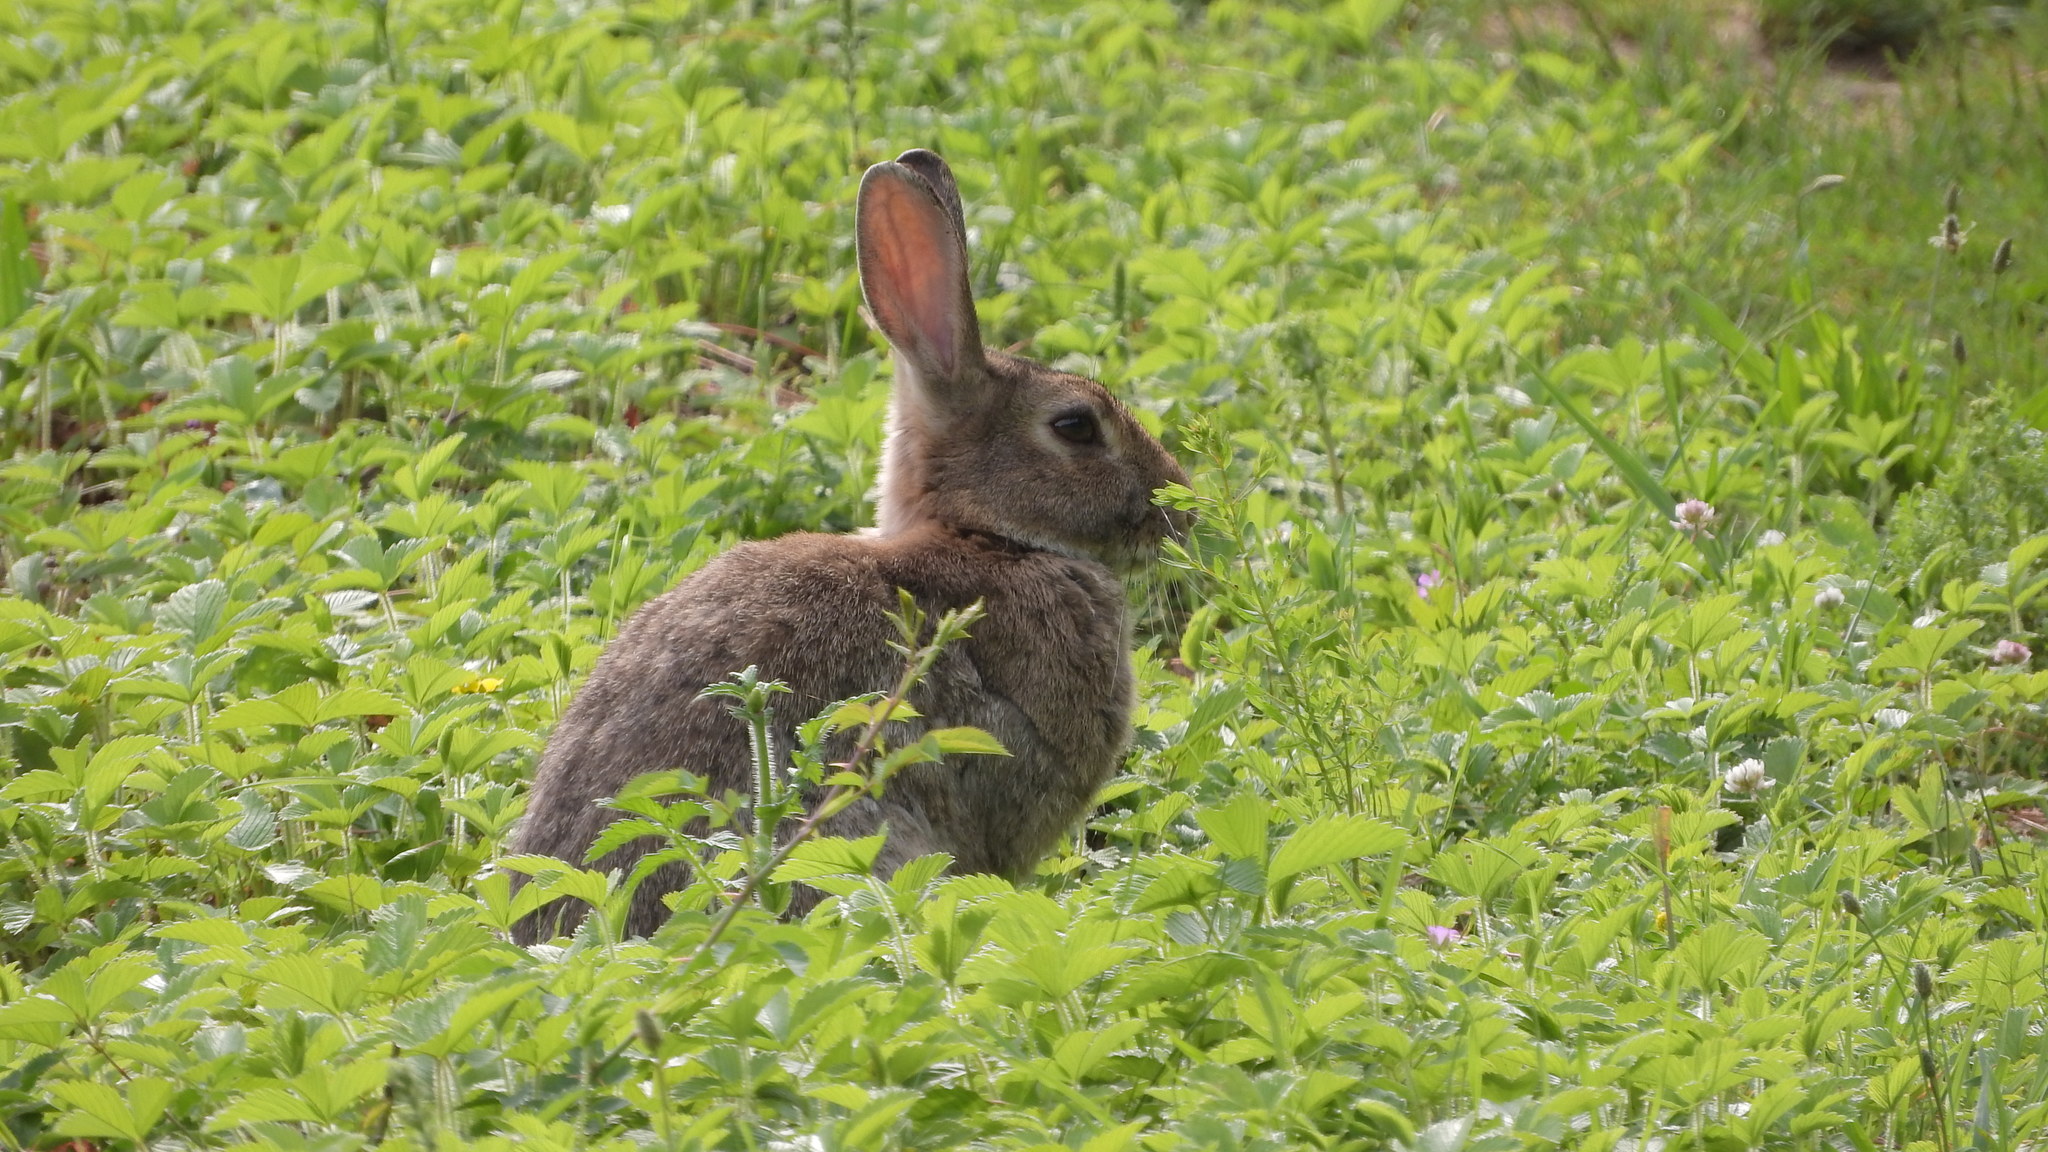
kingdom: Animalia
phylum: Chordata
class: Mammalia
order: Lagomorpha
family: Leporidae
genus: Oryctolagus
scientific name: Oryctolagus cuniculus
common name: European rabbit
